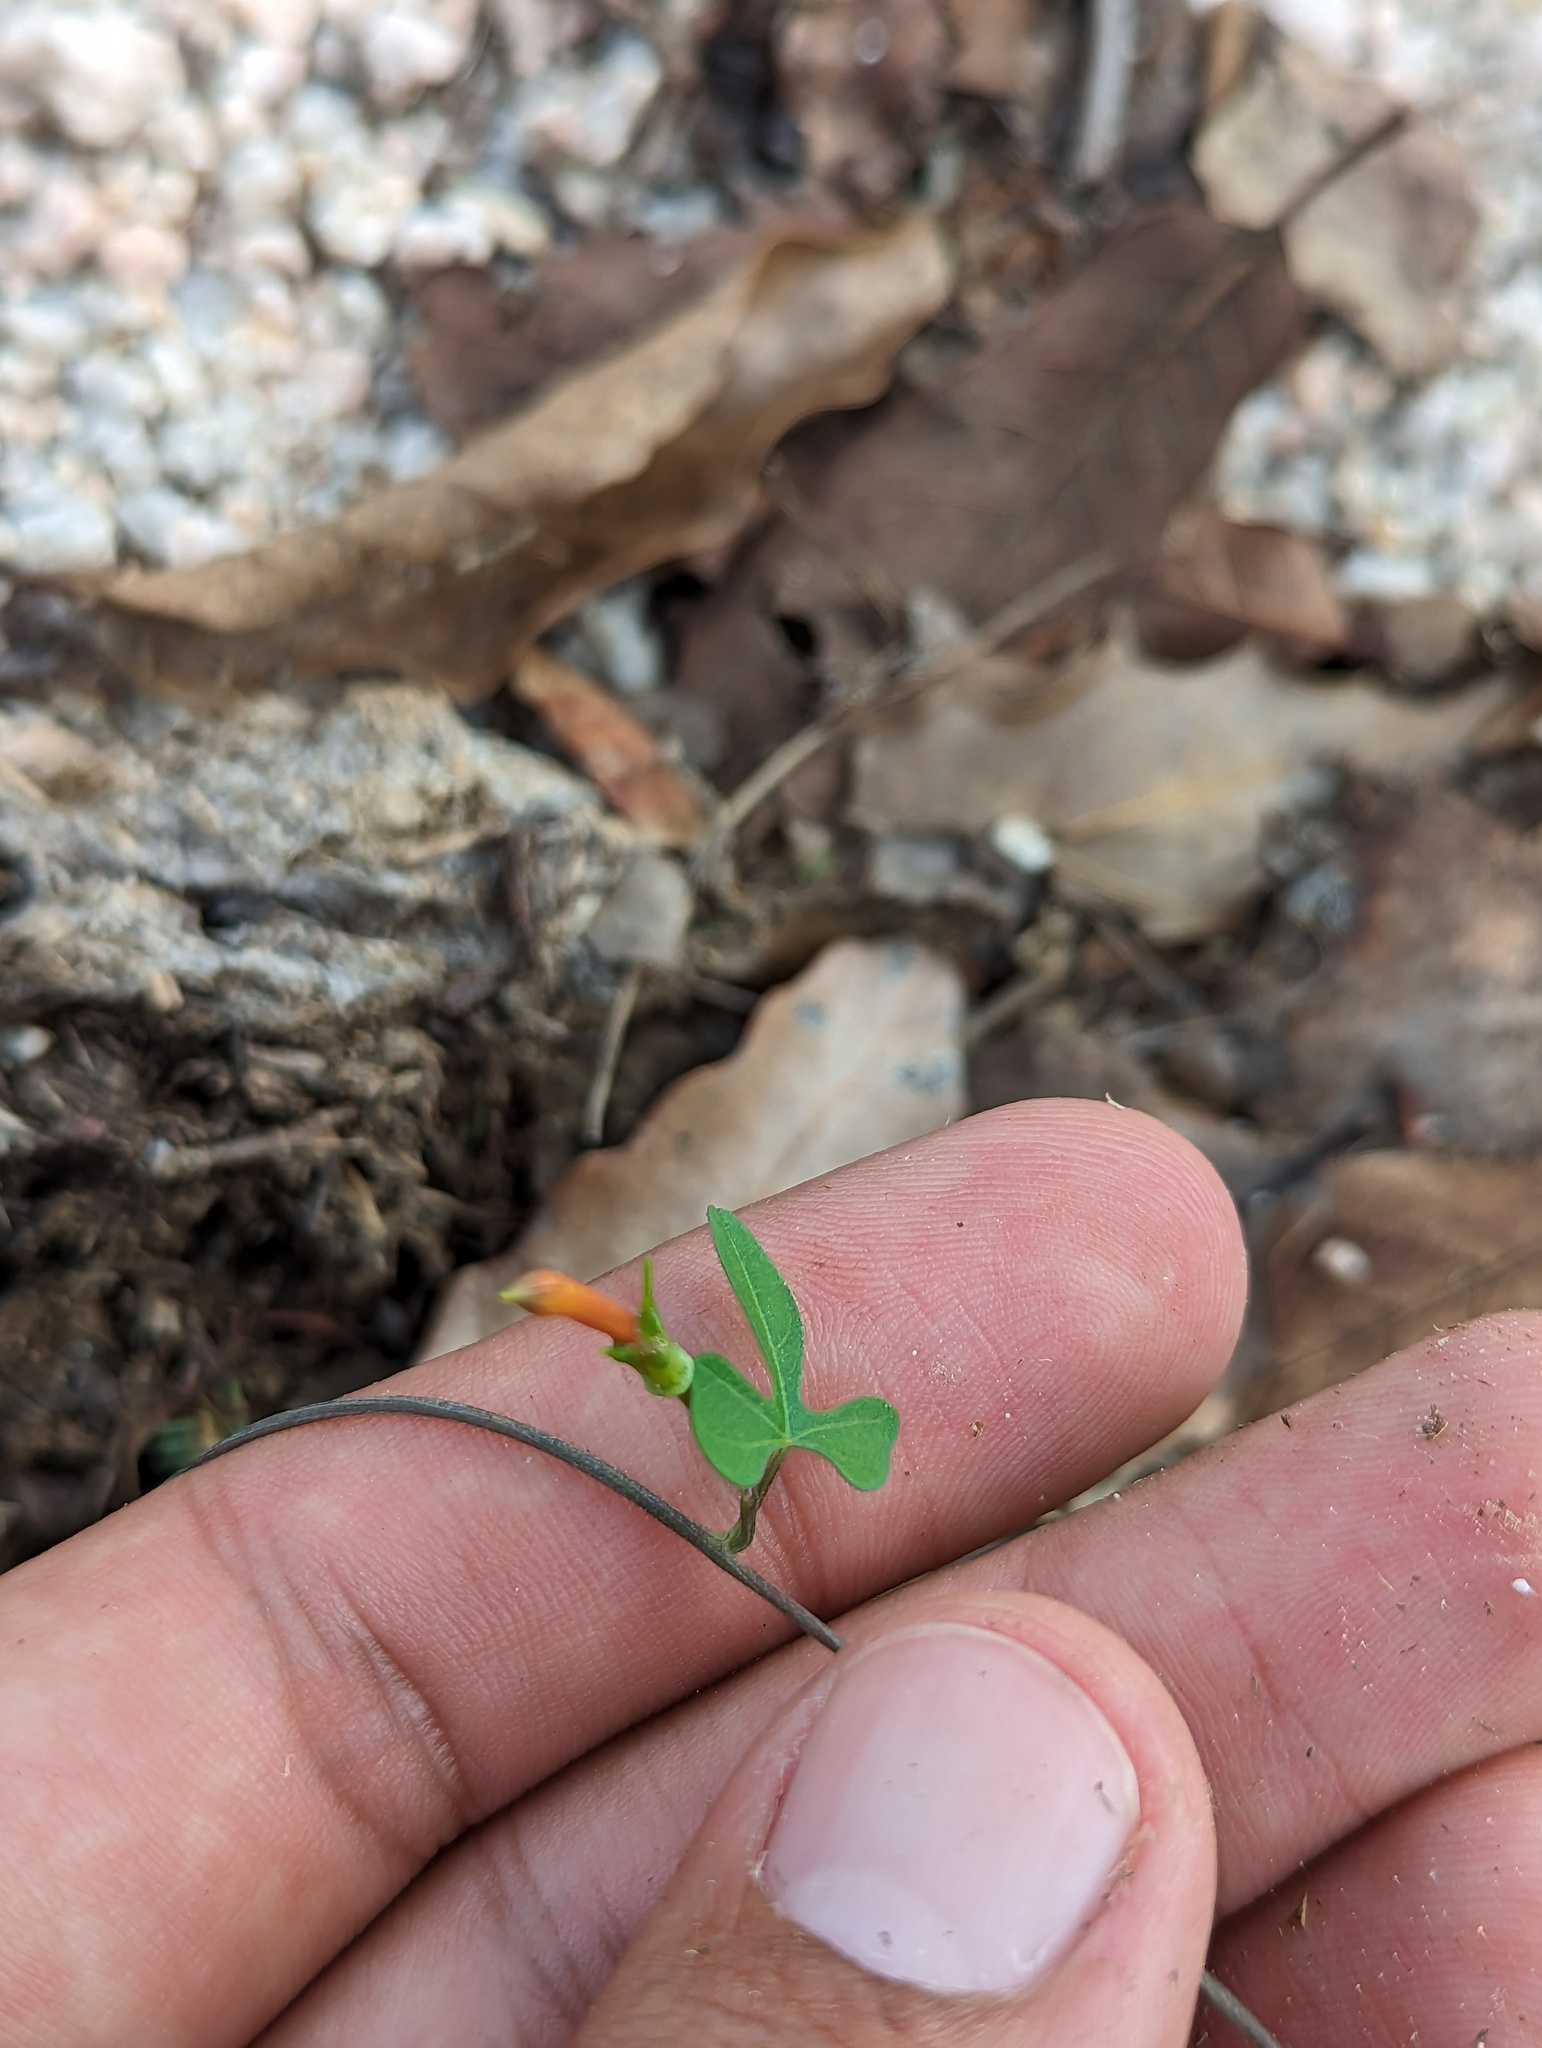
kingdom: Plantae
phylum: Tracheophyta
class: Magnoliopsida
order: Solanales
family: Convolvulaceae
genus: Ipomoea
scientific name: Ipomoea cristulata
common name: Trans-pecos morning-glory
